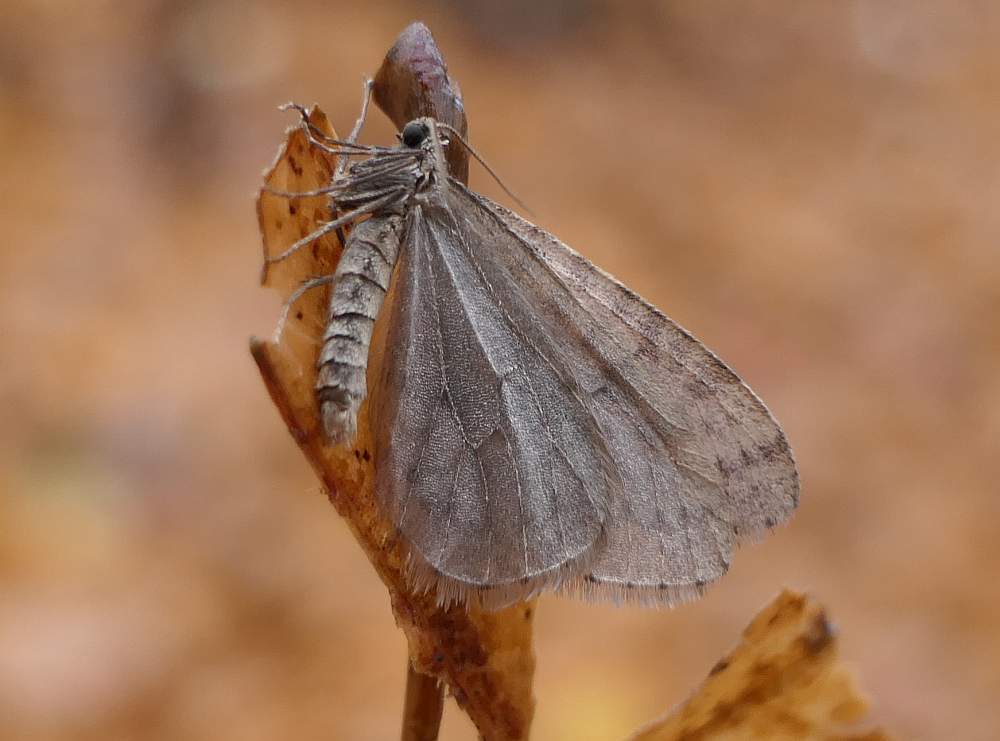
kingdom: Animalia
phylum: Arthropoda
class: Insecta
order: Lepidoptera
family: Geometridae
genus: Operophtera
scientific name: Operophtera bruceata
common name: Bruce spanworm
